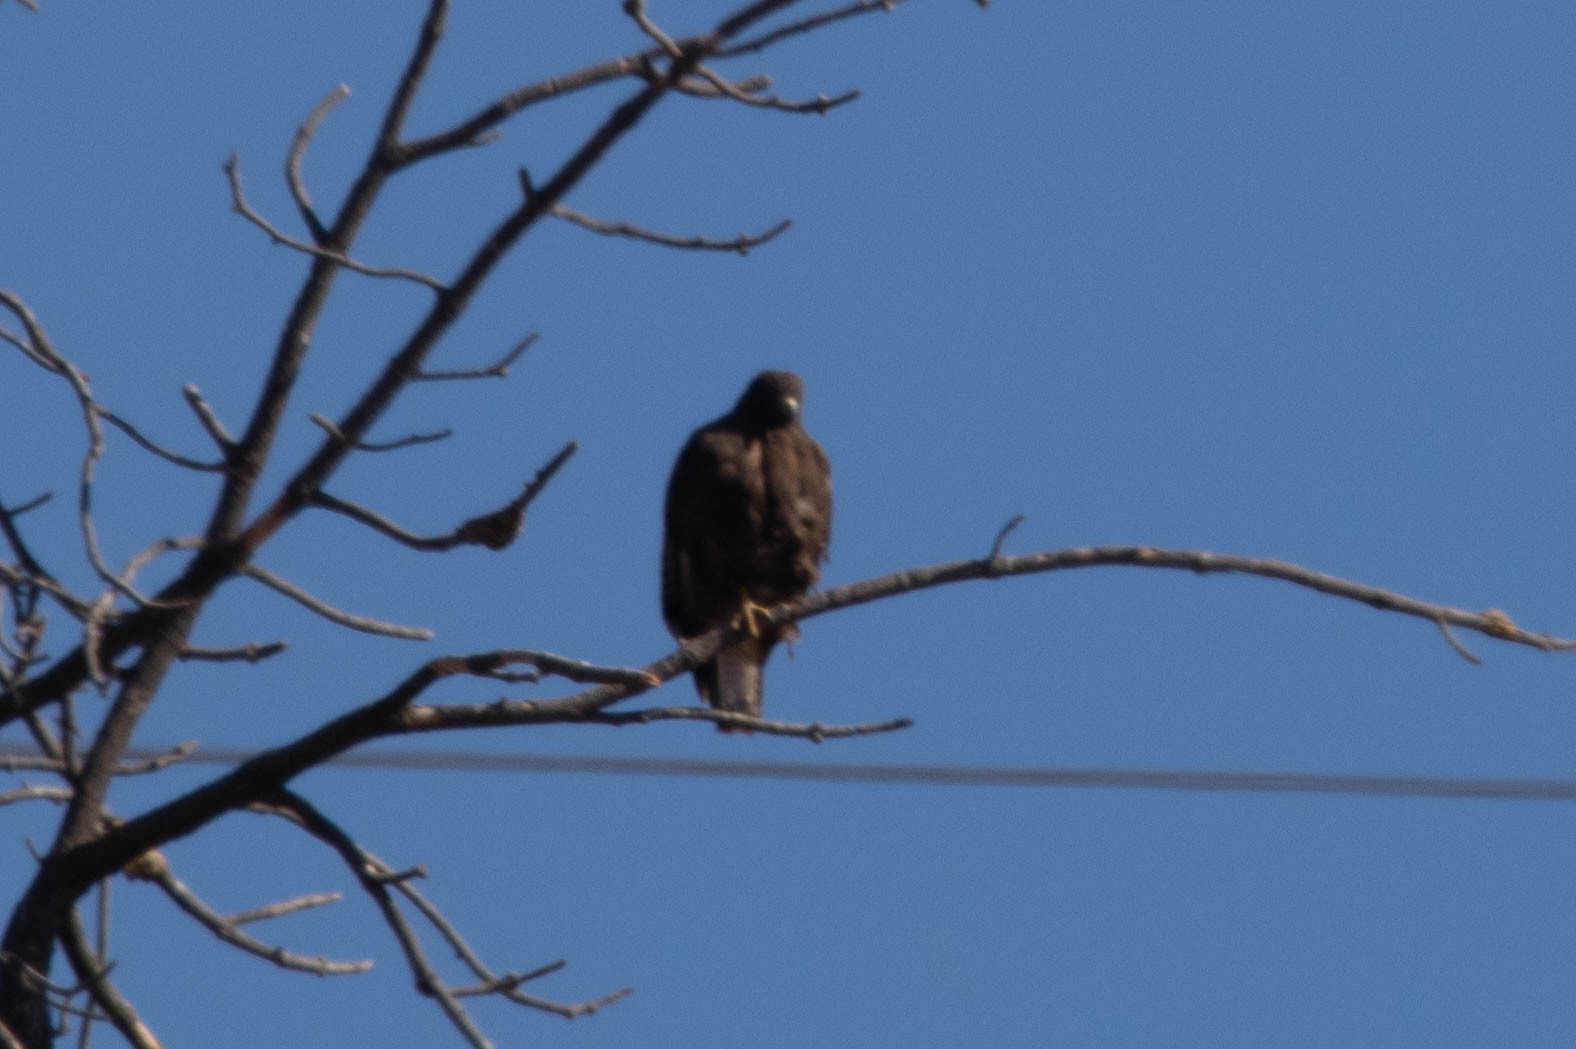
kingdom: Animalia
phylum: Chordata
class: Aves
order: Accipitriformes
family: Accipitridae
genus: Buteo
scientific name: Buteo jamaicensis
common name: Red-tailed hawk
